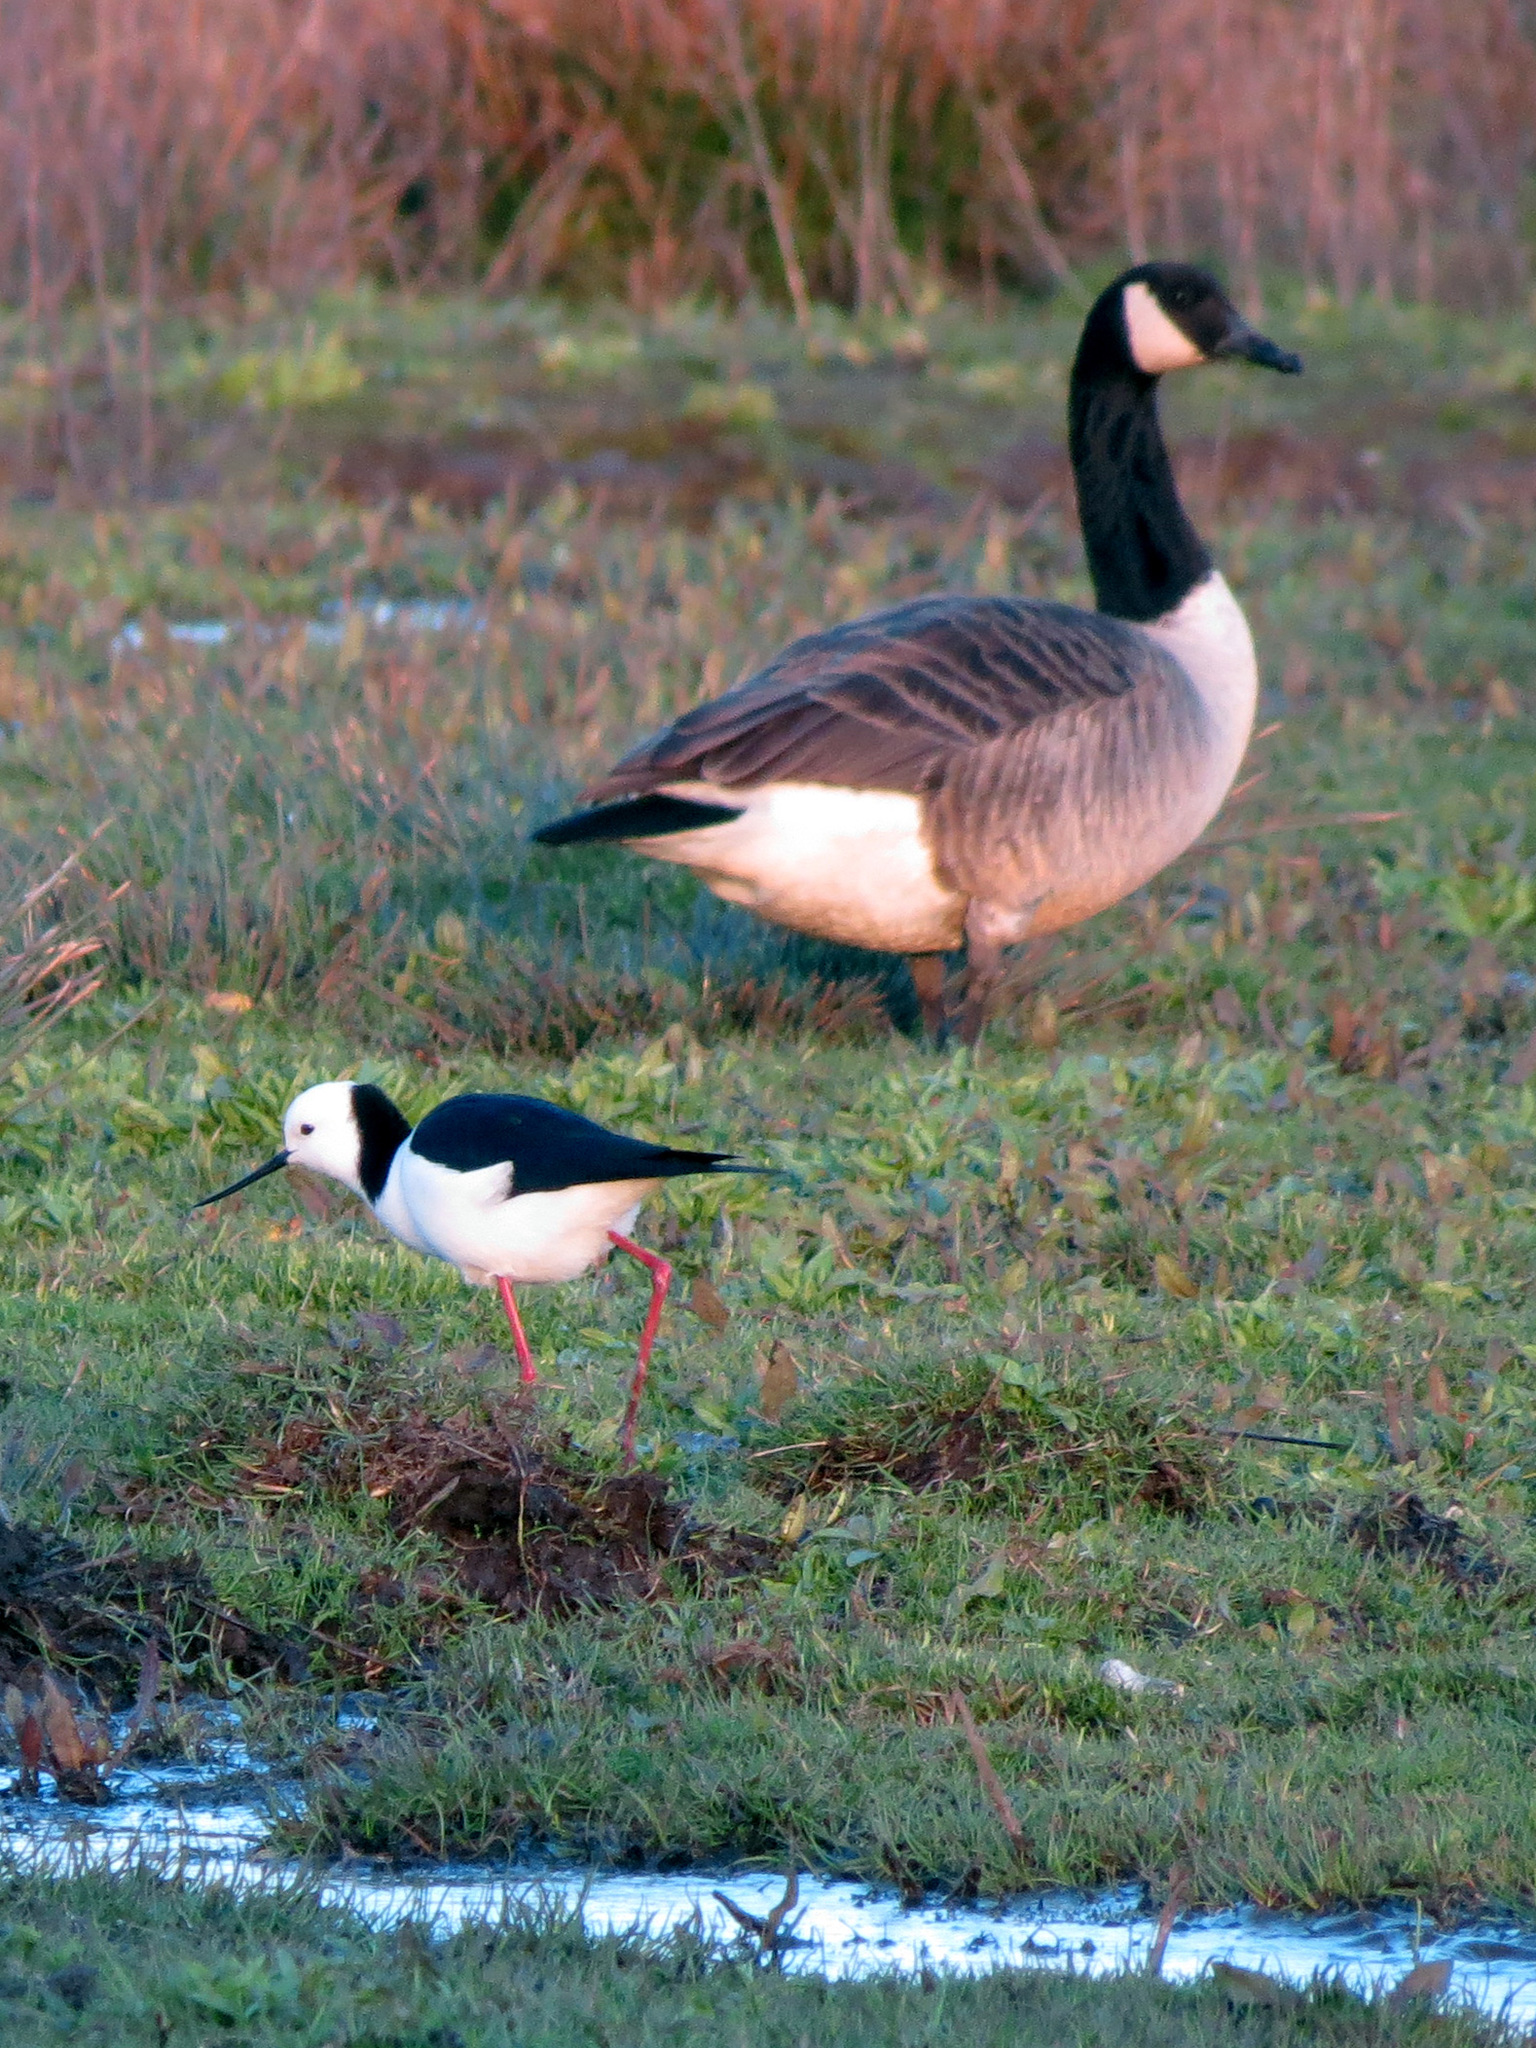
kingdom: Animalia
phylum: Chordata
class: Aves
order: Charadriiformes
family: Recurvirostridae
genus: Himantopus
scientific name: Himantopus leucocephalus
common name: White-headed stilt
